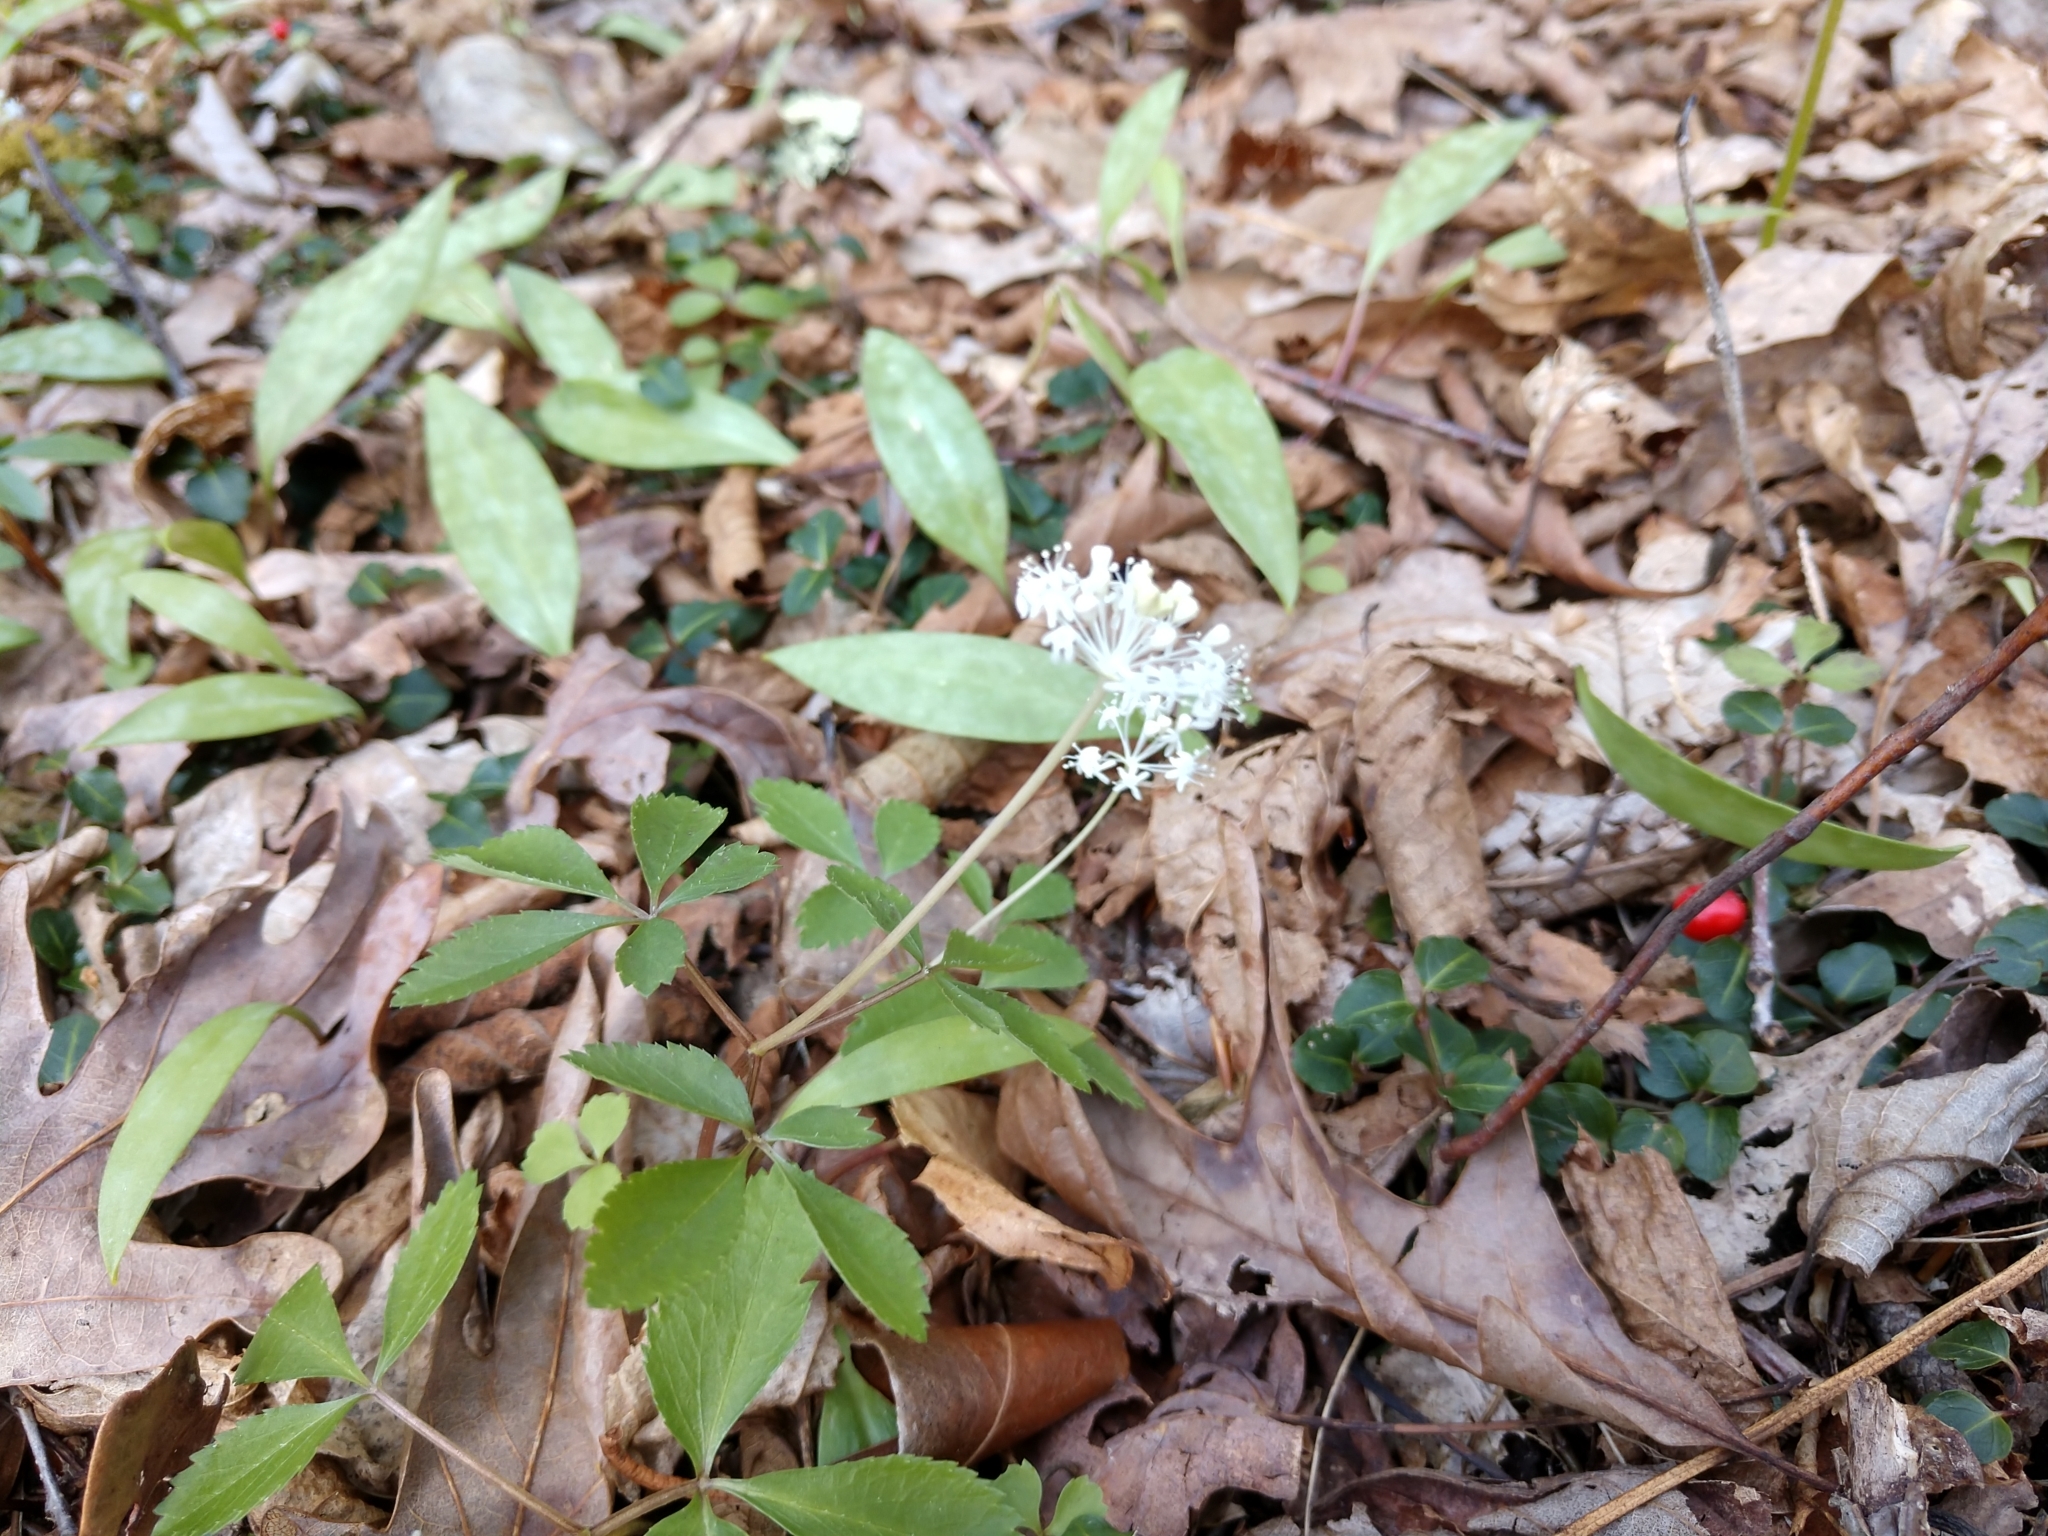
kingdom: Plantae
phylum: Tracheophyta
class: Magnoliopsida
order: Apiales
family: Araliaceae
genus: Panax
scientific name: Panax trifolius
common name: Dwarf ginseng
